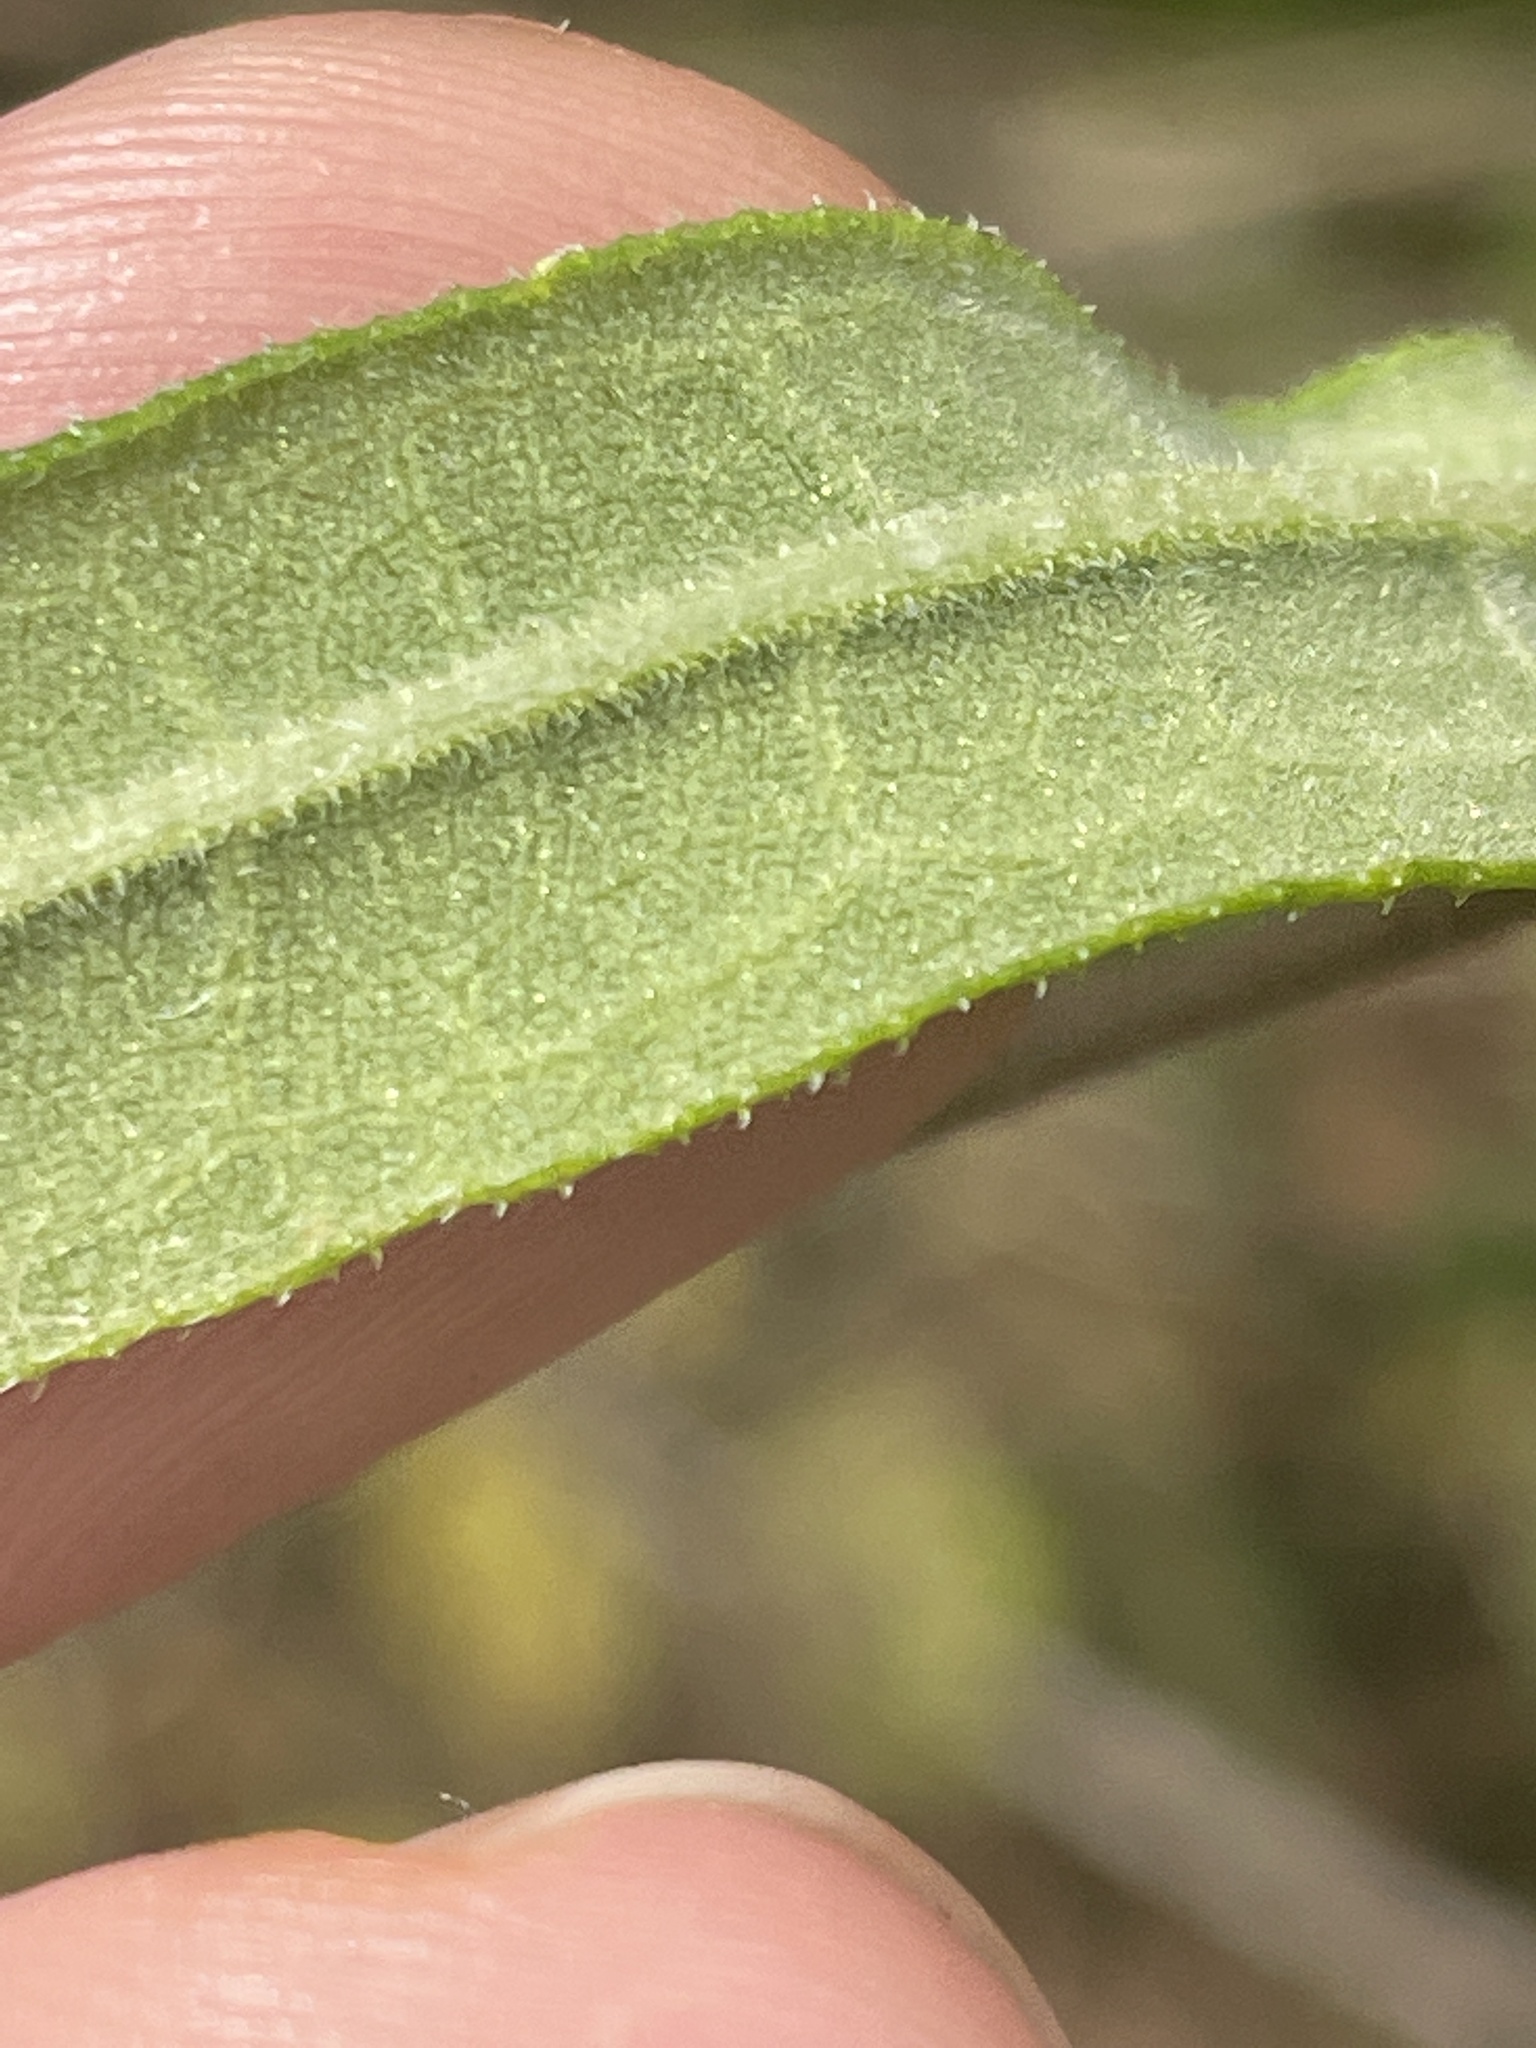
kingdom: Plantae
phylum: Tracheophyta
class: Magnoliopsida
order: Asterales
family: Asteraceae
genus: Helianthus
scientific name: Helianthus schweinitzii
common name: Schweinitz's sunflower
